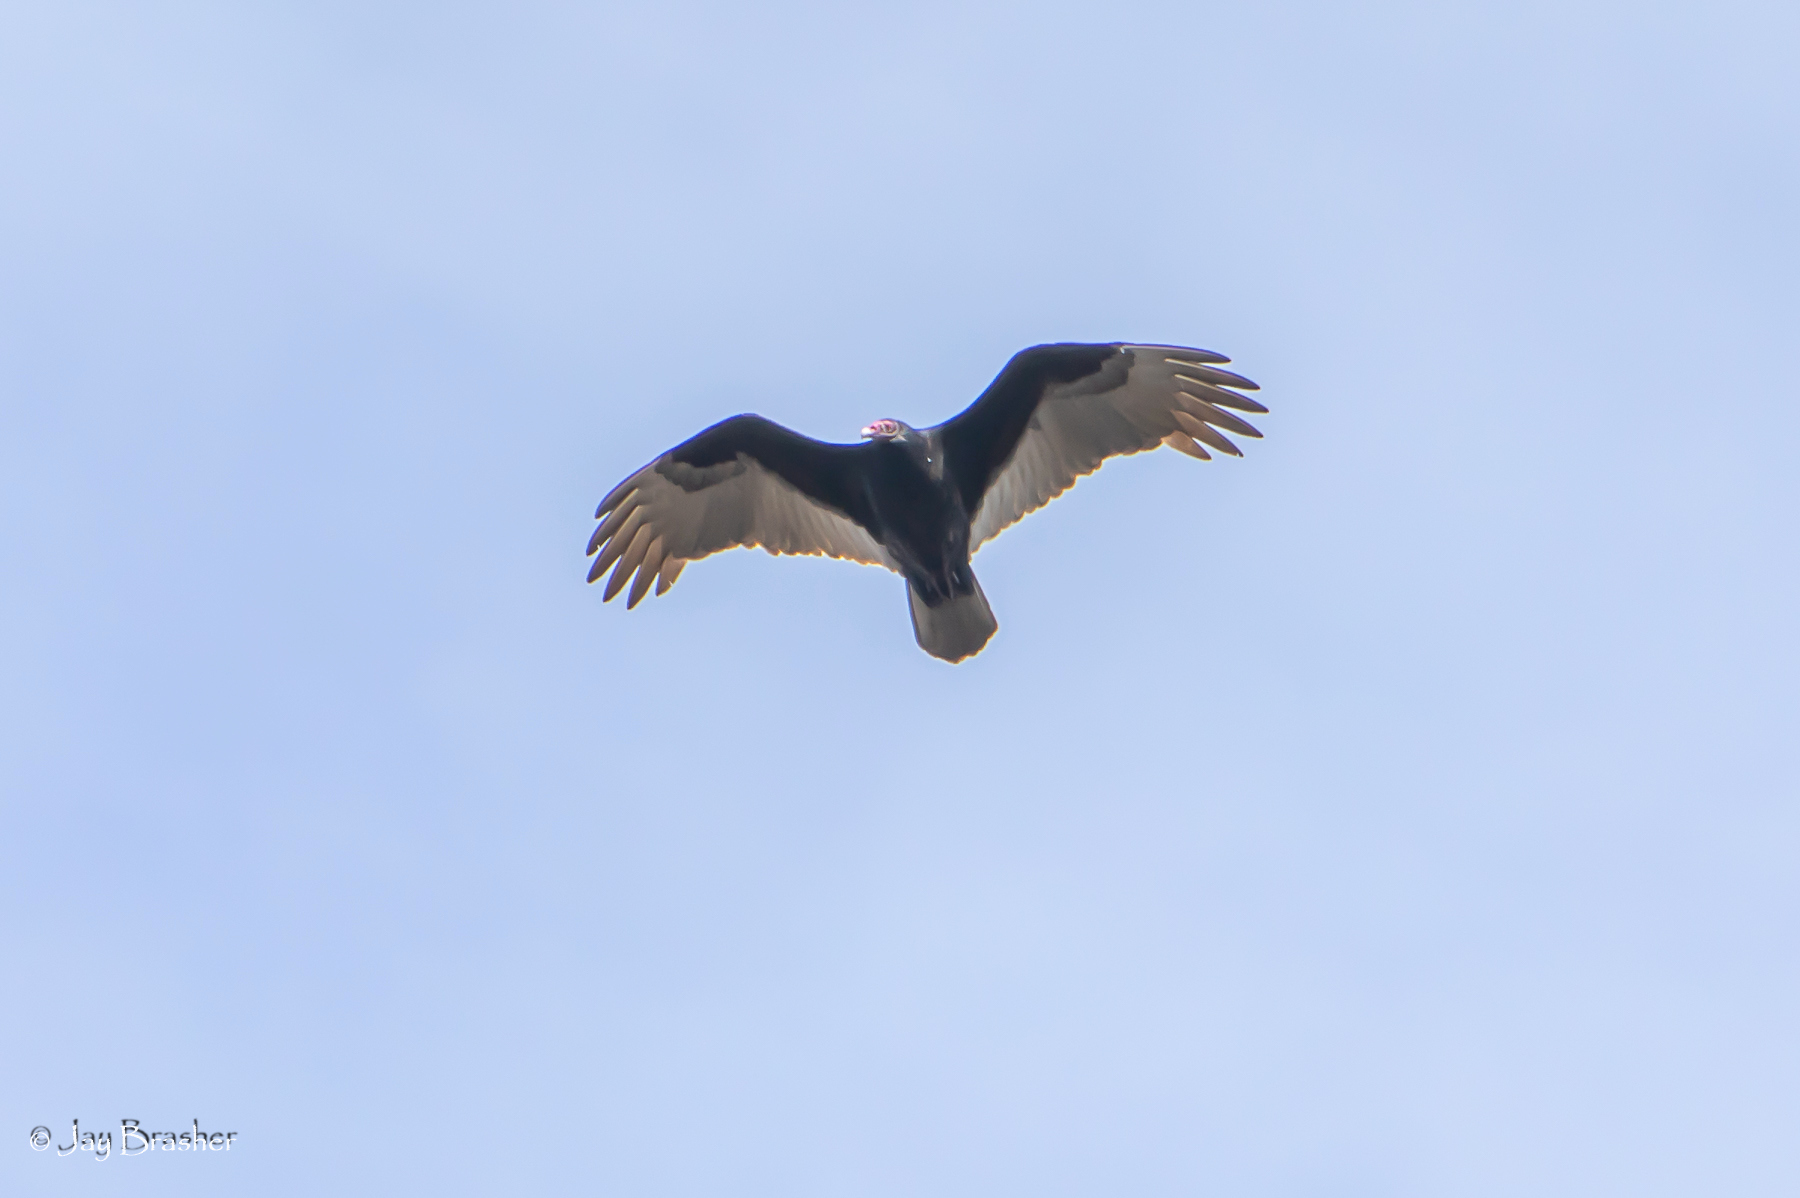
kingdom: Animalia
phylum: Chordata
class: Aves
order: Accipitriformes
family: Cathartidae
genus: Cathartes
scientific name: Cathartes aura
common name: Turkey vulture
